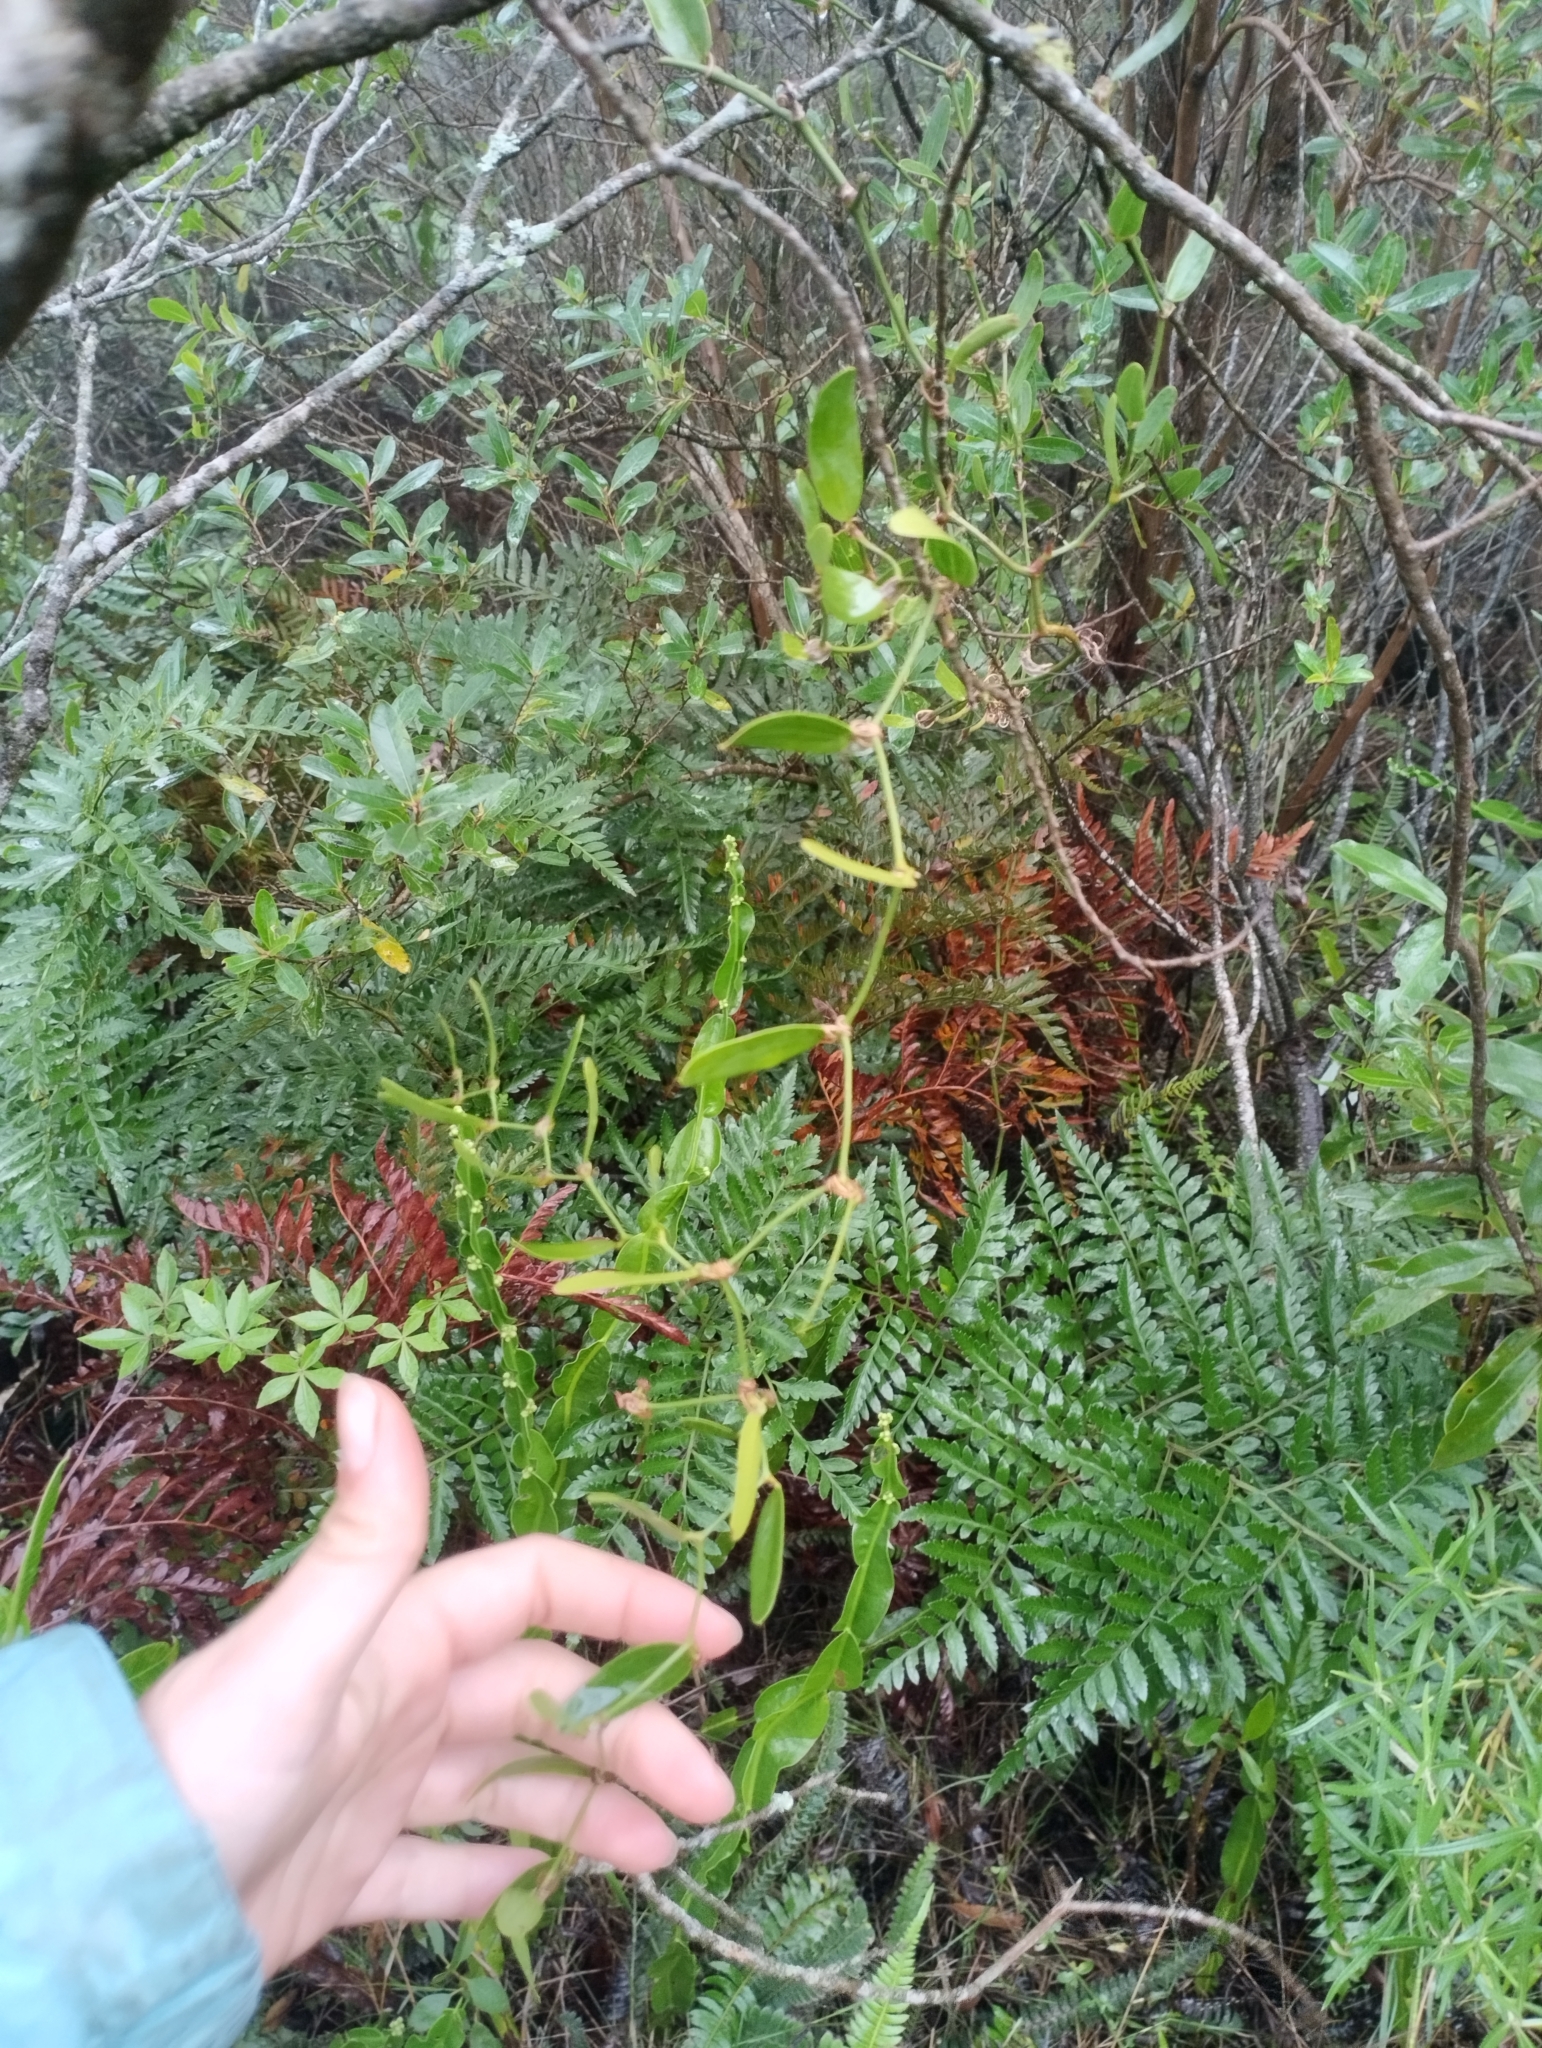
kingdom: Plantae
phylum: Tracheophyta
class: Liliopsida
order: Liliales
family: Smilacaceae
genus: Smilax
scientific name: Smilax campestris
